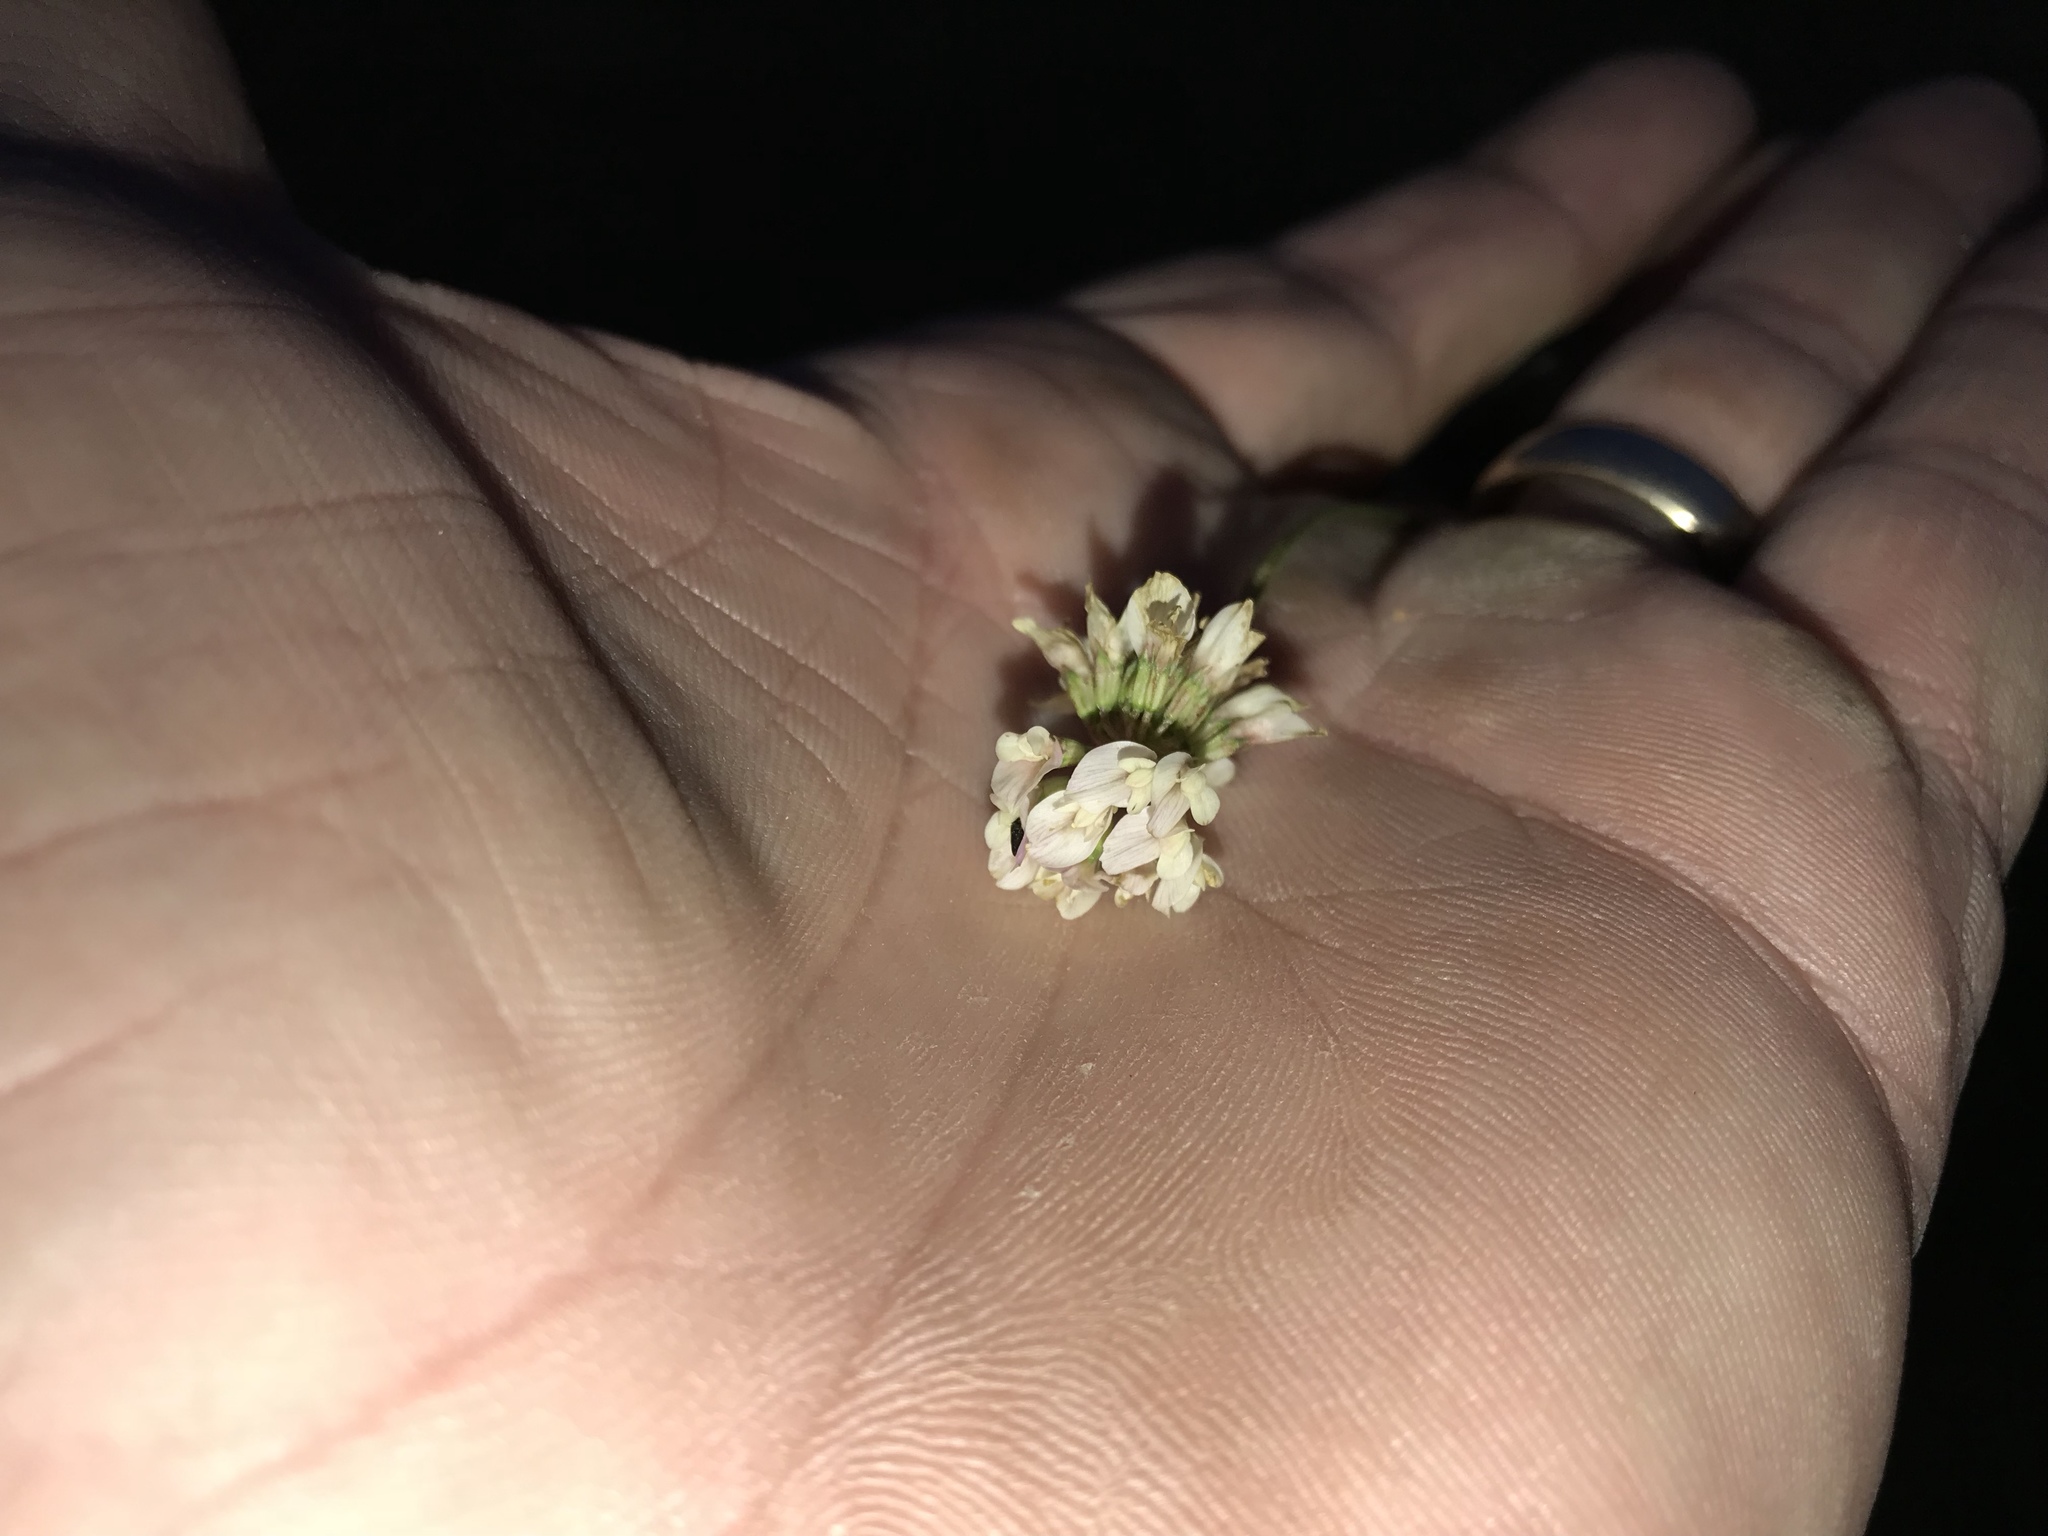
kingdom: Plantae
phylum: Tracheophyta
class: Magnoliopsida
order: Fabales
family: Fabaceae
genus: Trifolium
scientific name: Trifolium repens
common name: White clover
